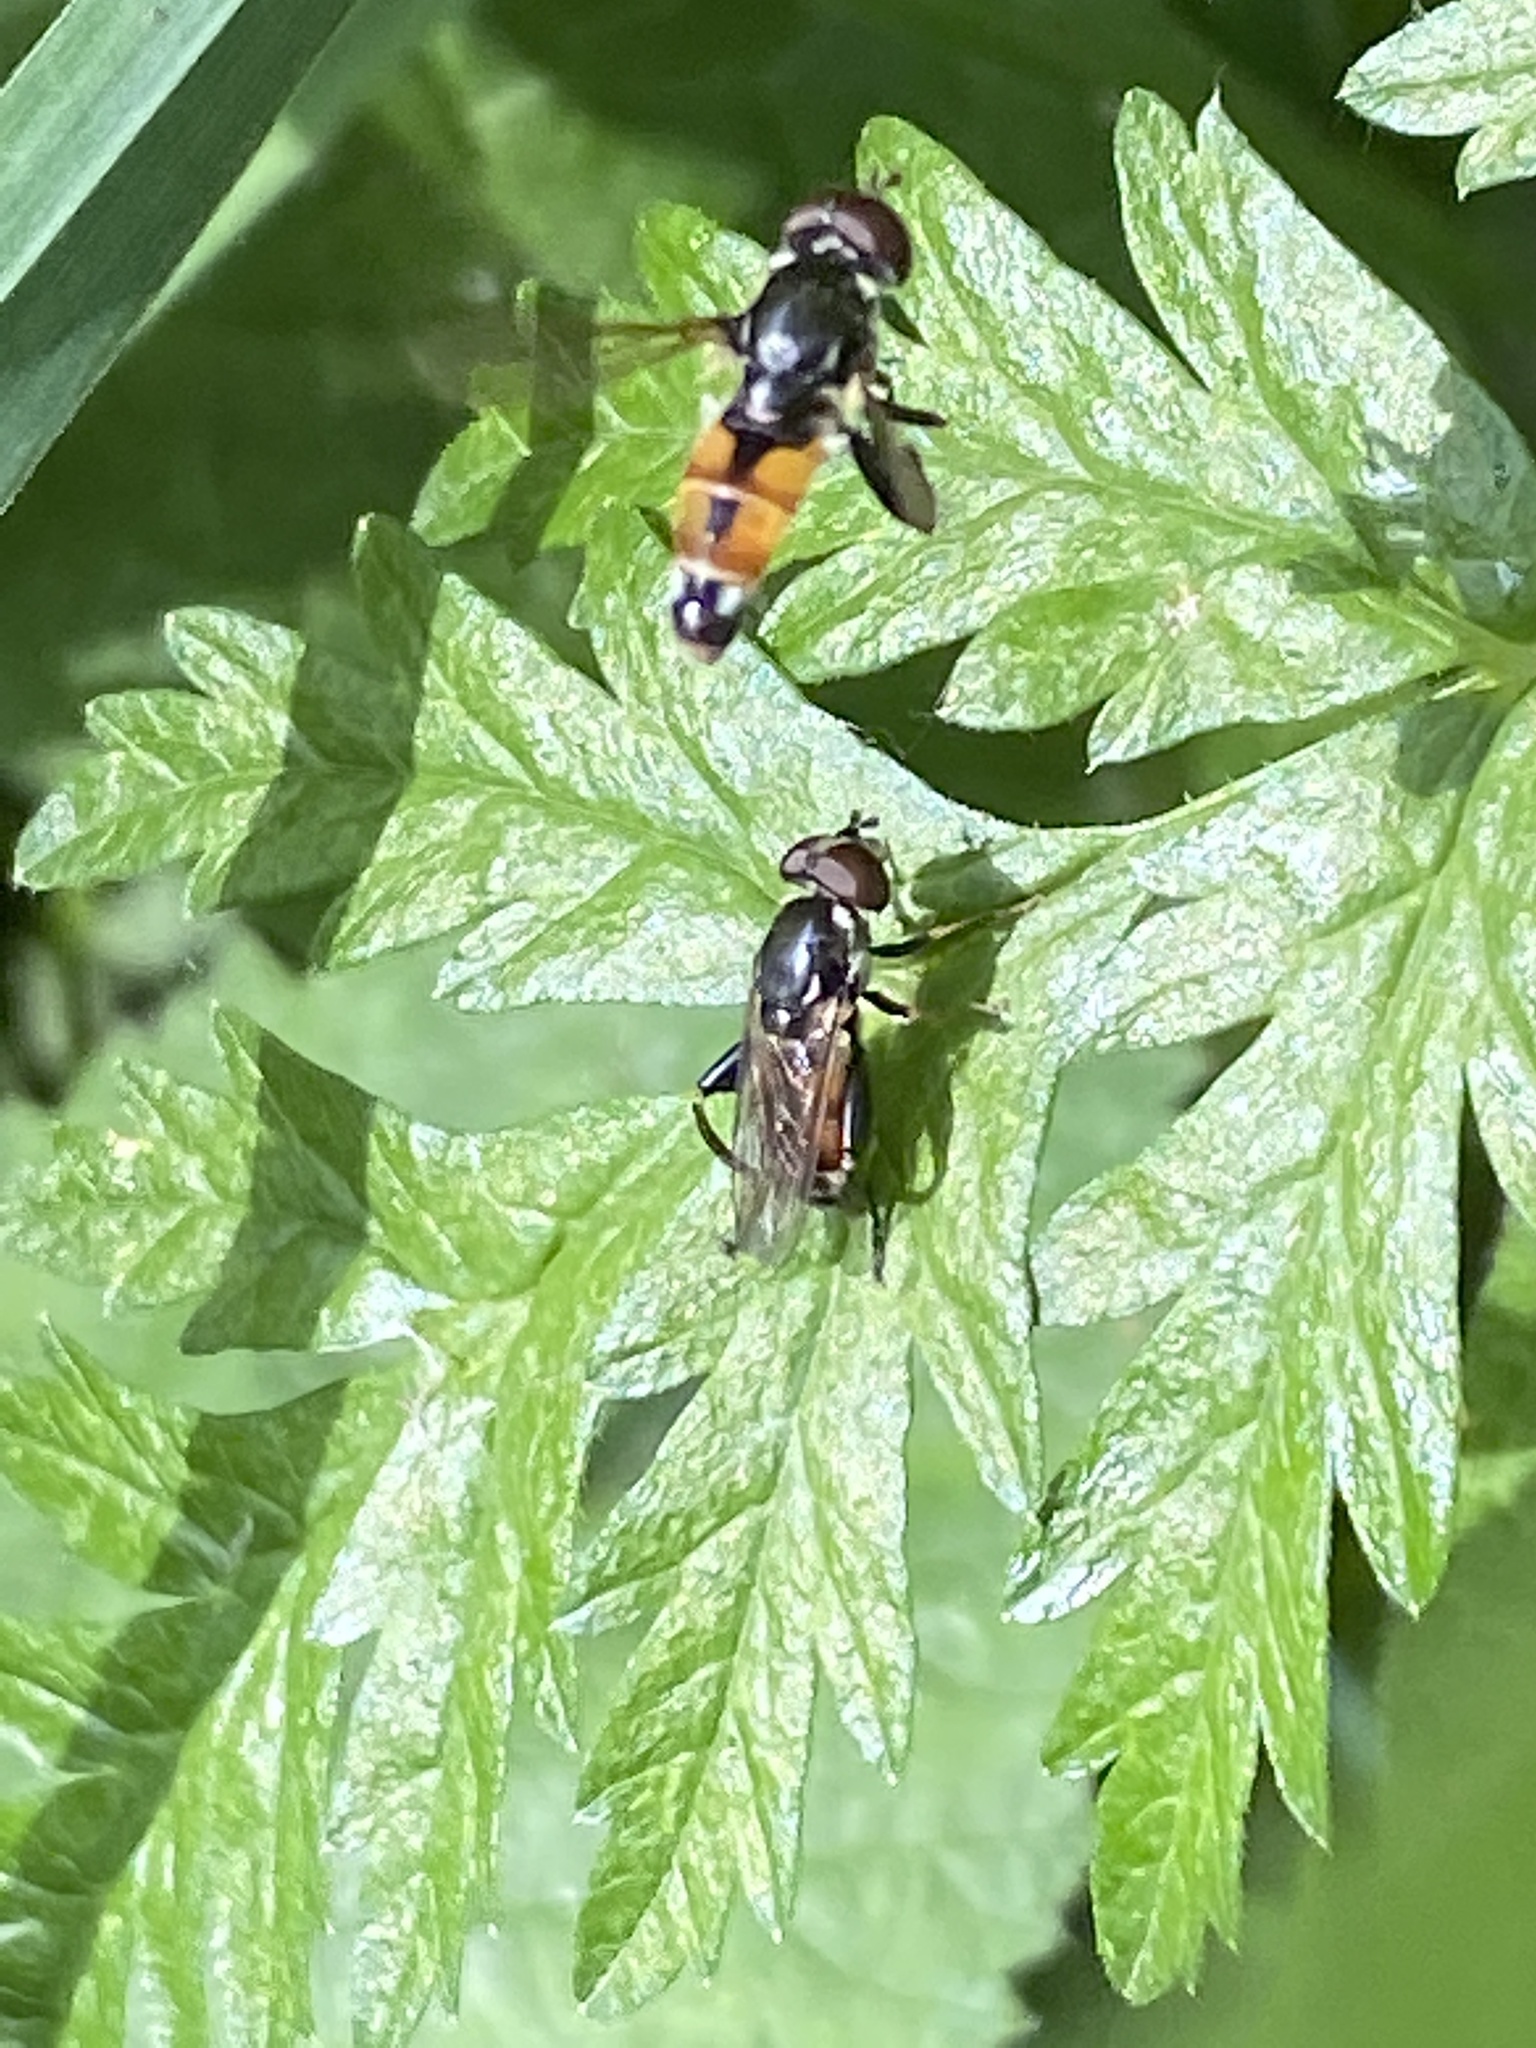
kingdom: Animalia
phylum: Arthropoda
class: Insecta
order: Diptera
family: Syrphidae
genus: Tropidia
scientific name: Tropidia scita
